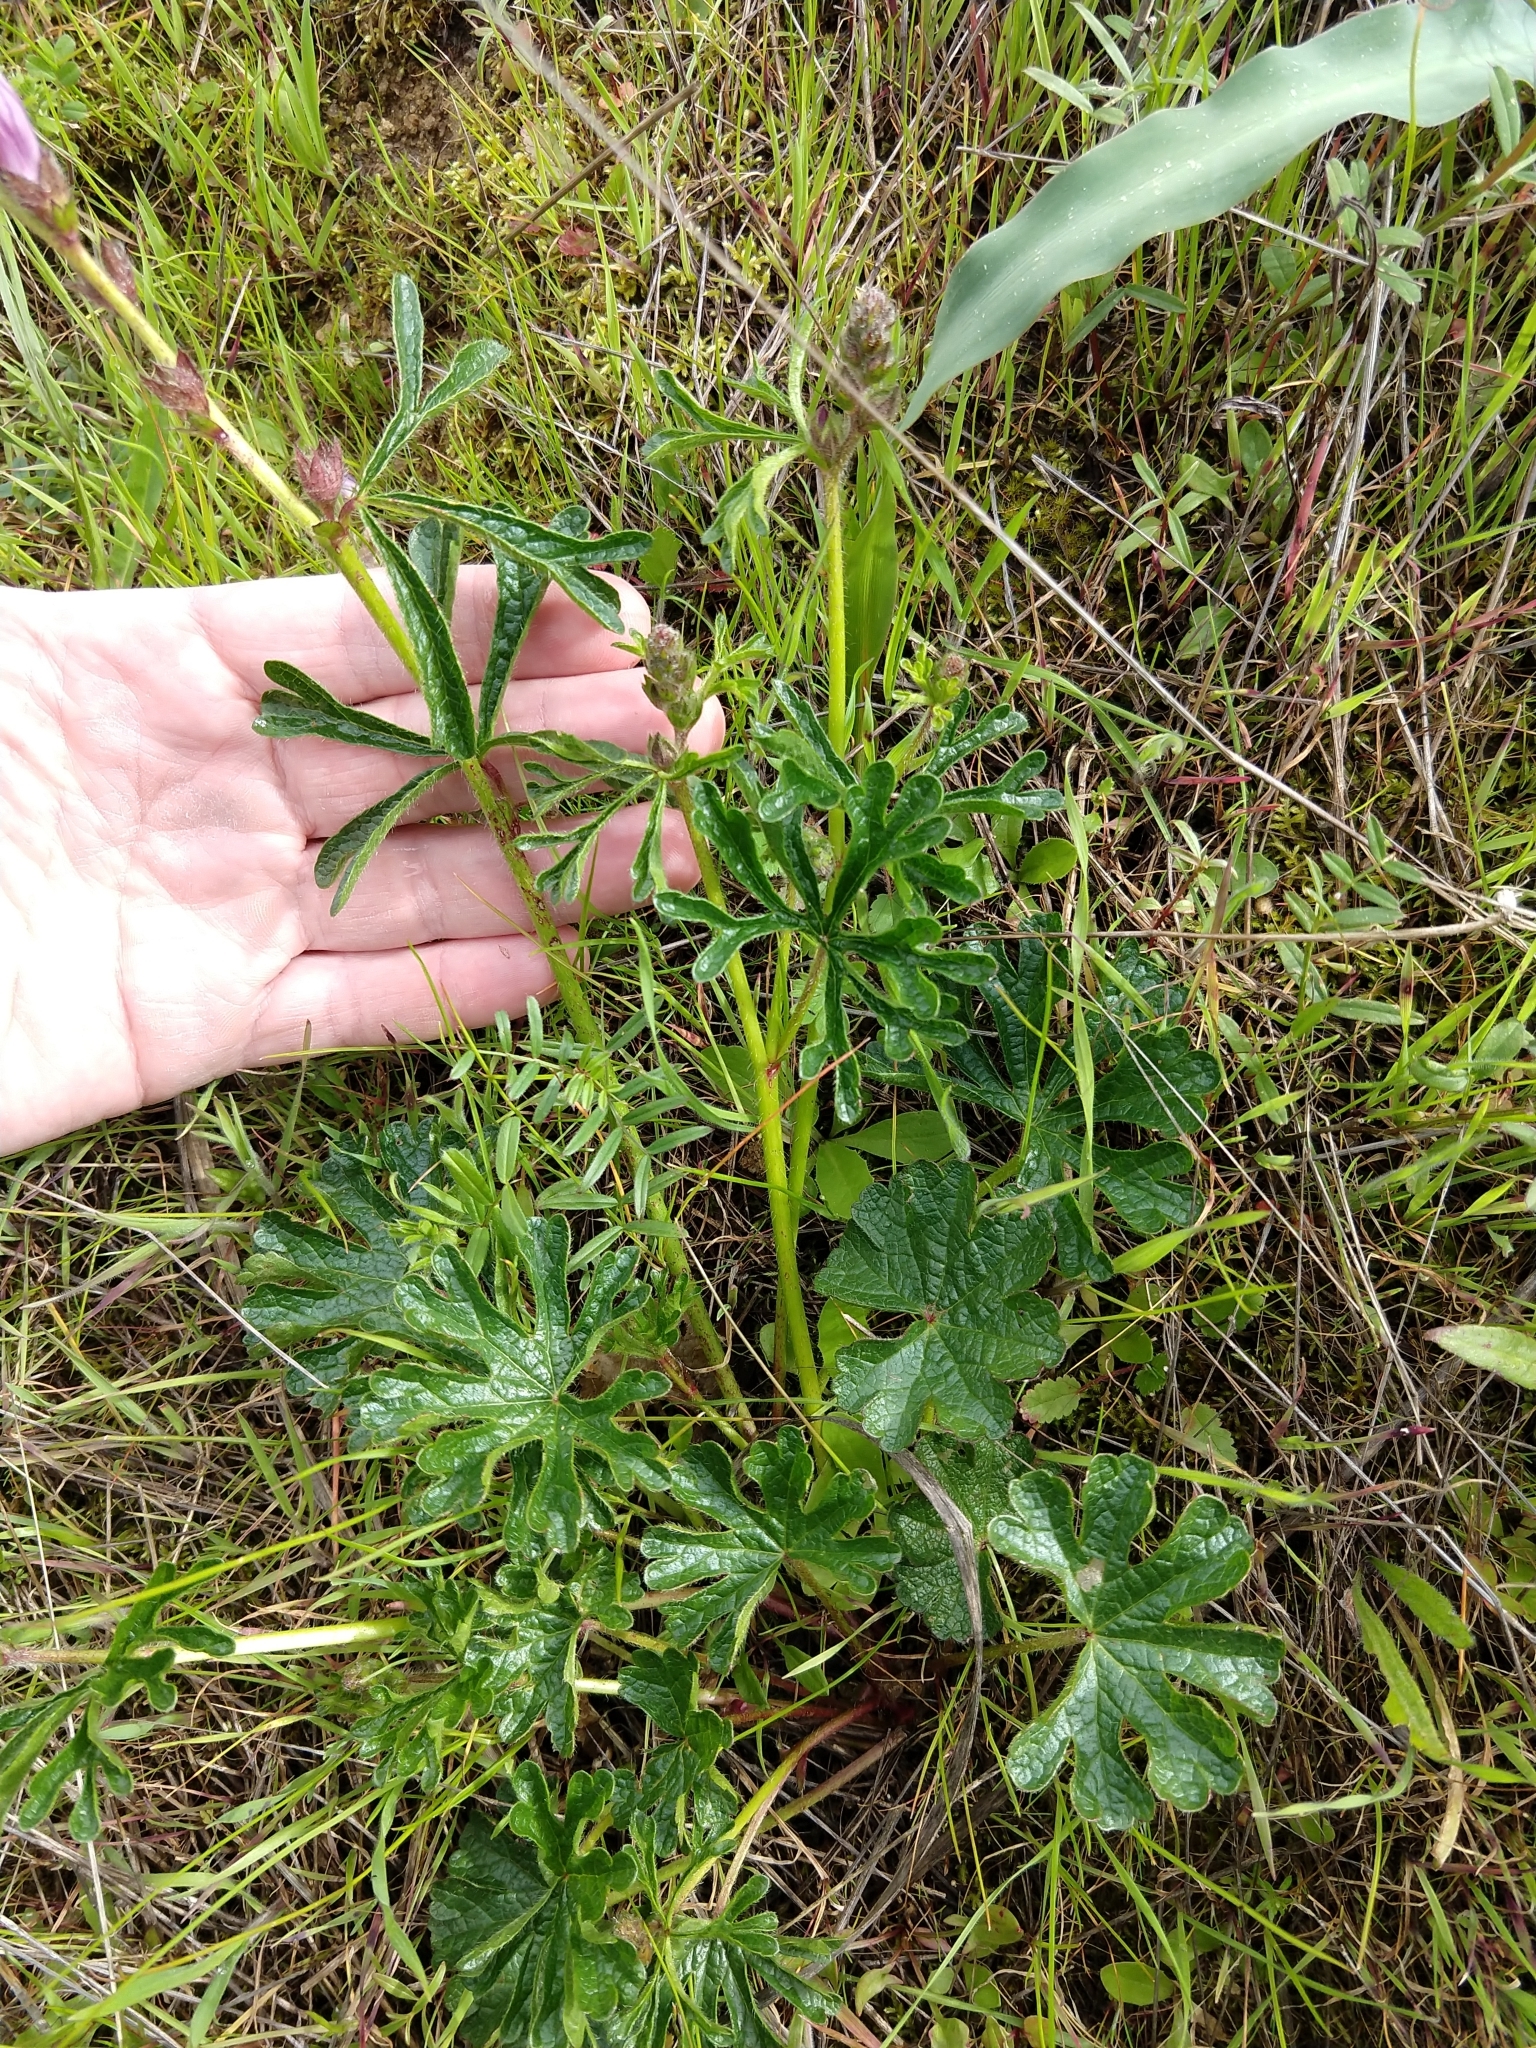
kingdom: Plantae
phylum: Tracheophyta
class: Magnoliopsida
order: Malvales
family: Malvaceae
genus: Sidalcea
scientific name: Sidalcea malviflora
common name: Greek mallow
